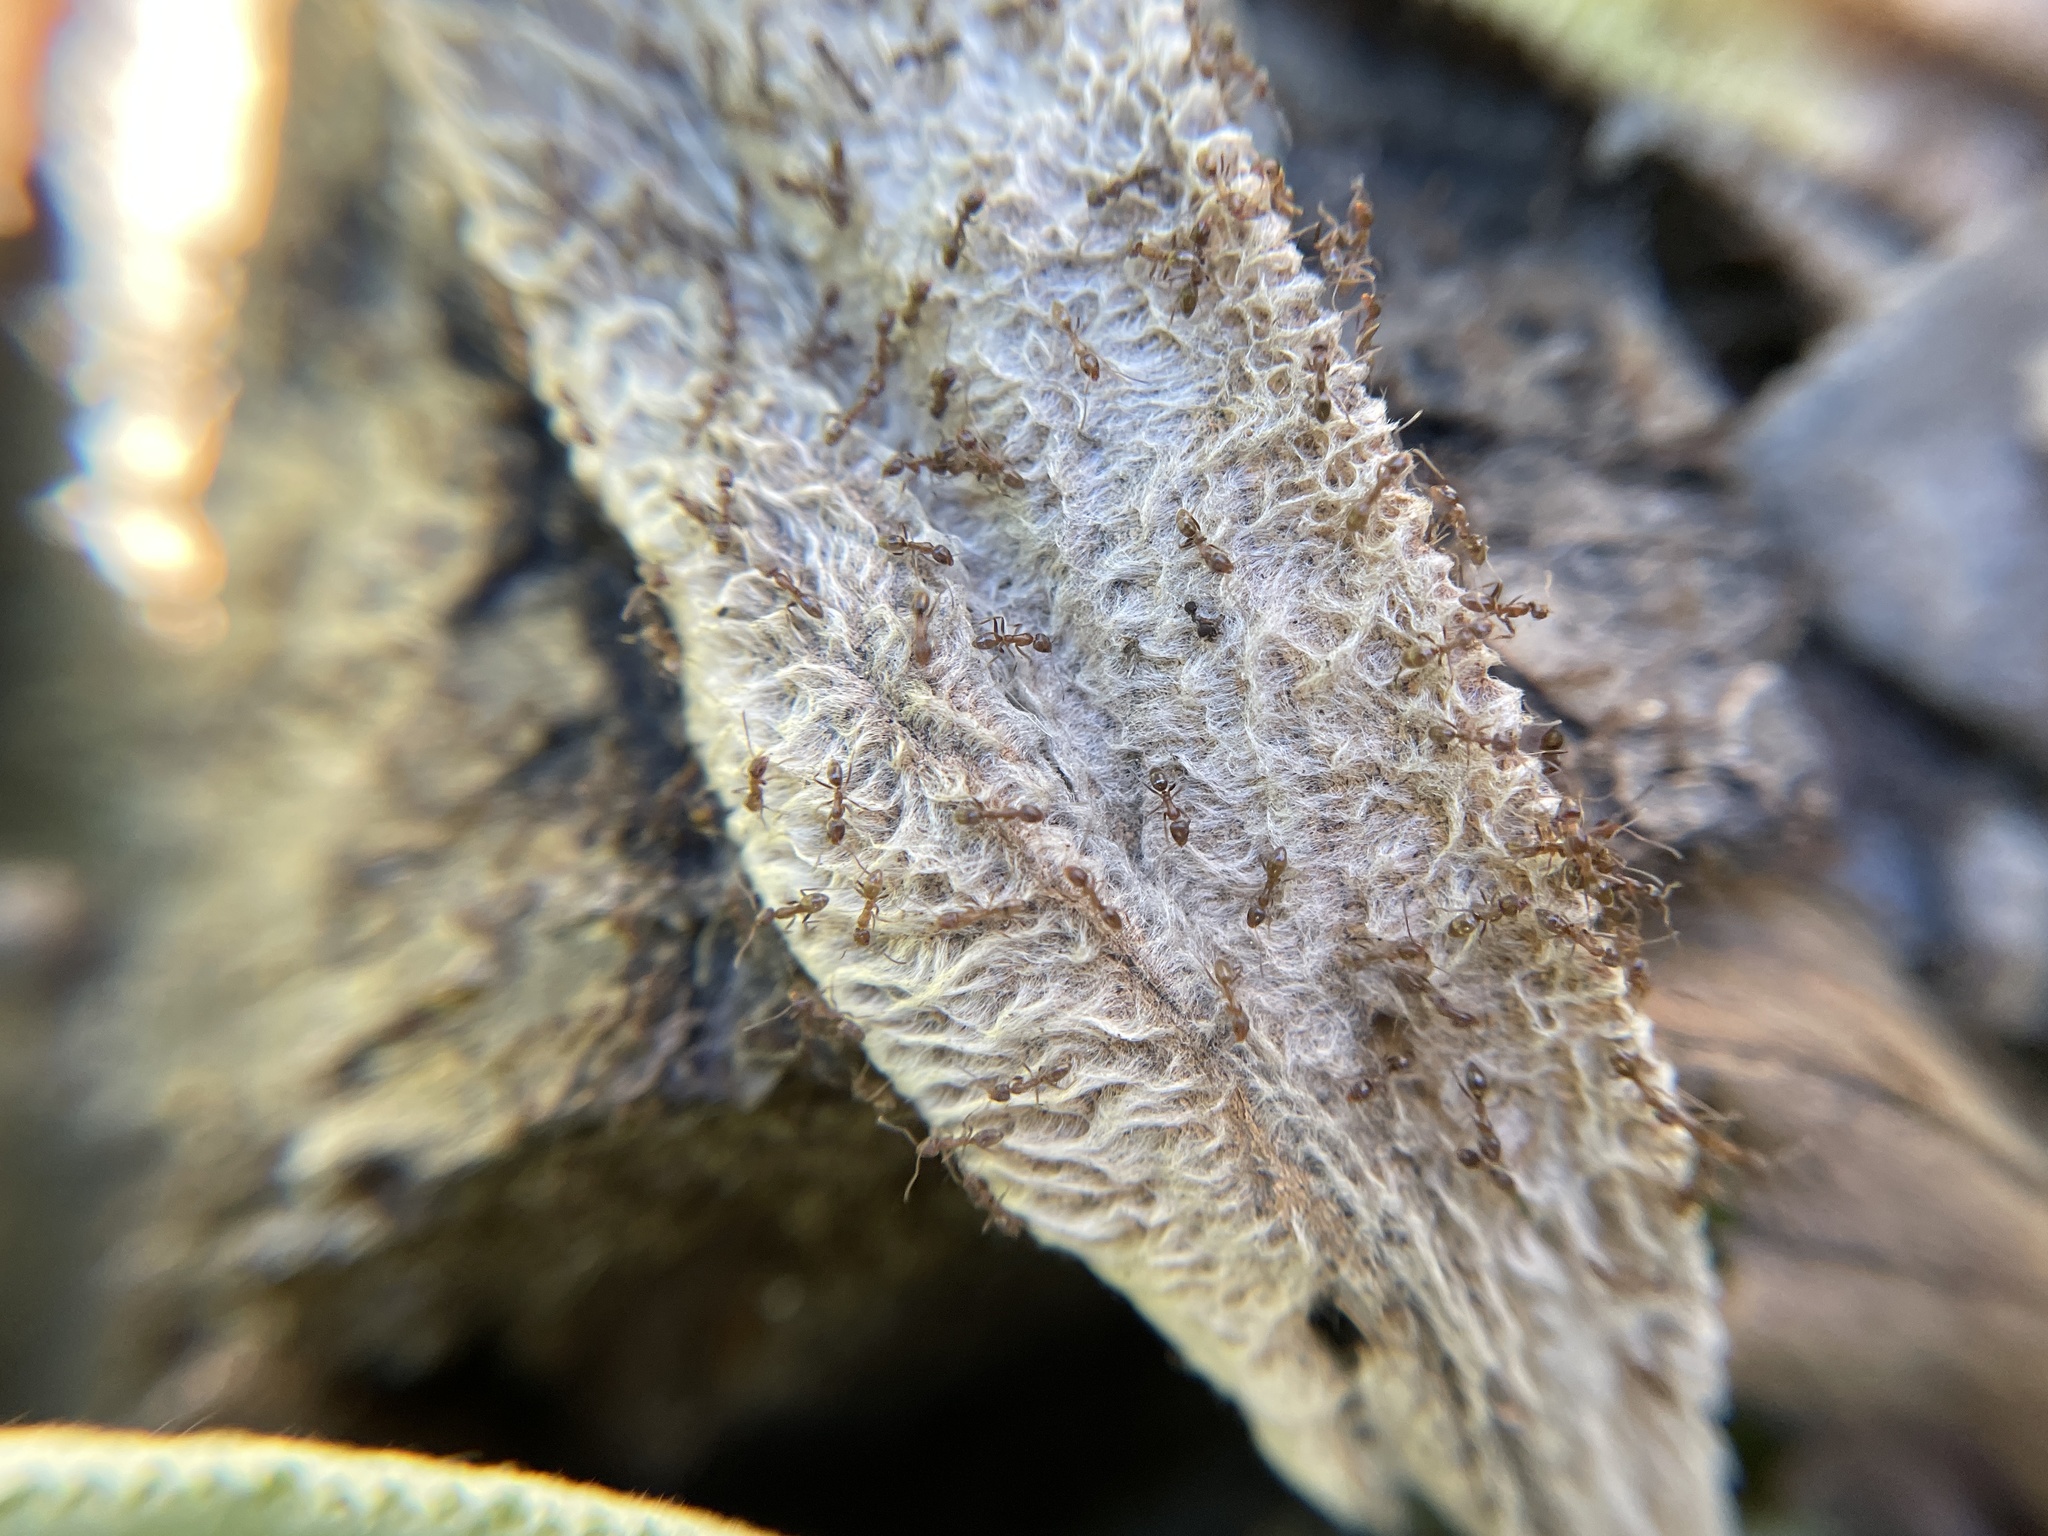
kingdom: Animalia
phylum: Arthropoda
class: Insecta
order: Hymenoptera
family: Formicidae
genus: Linepithema
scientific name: Linepithema humile
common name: Argentine ant
